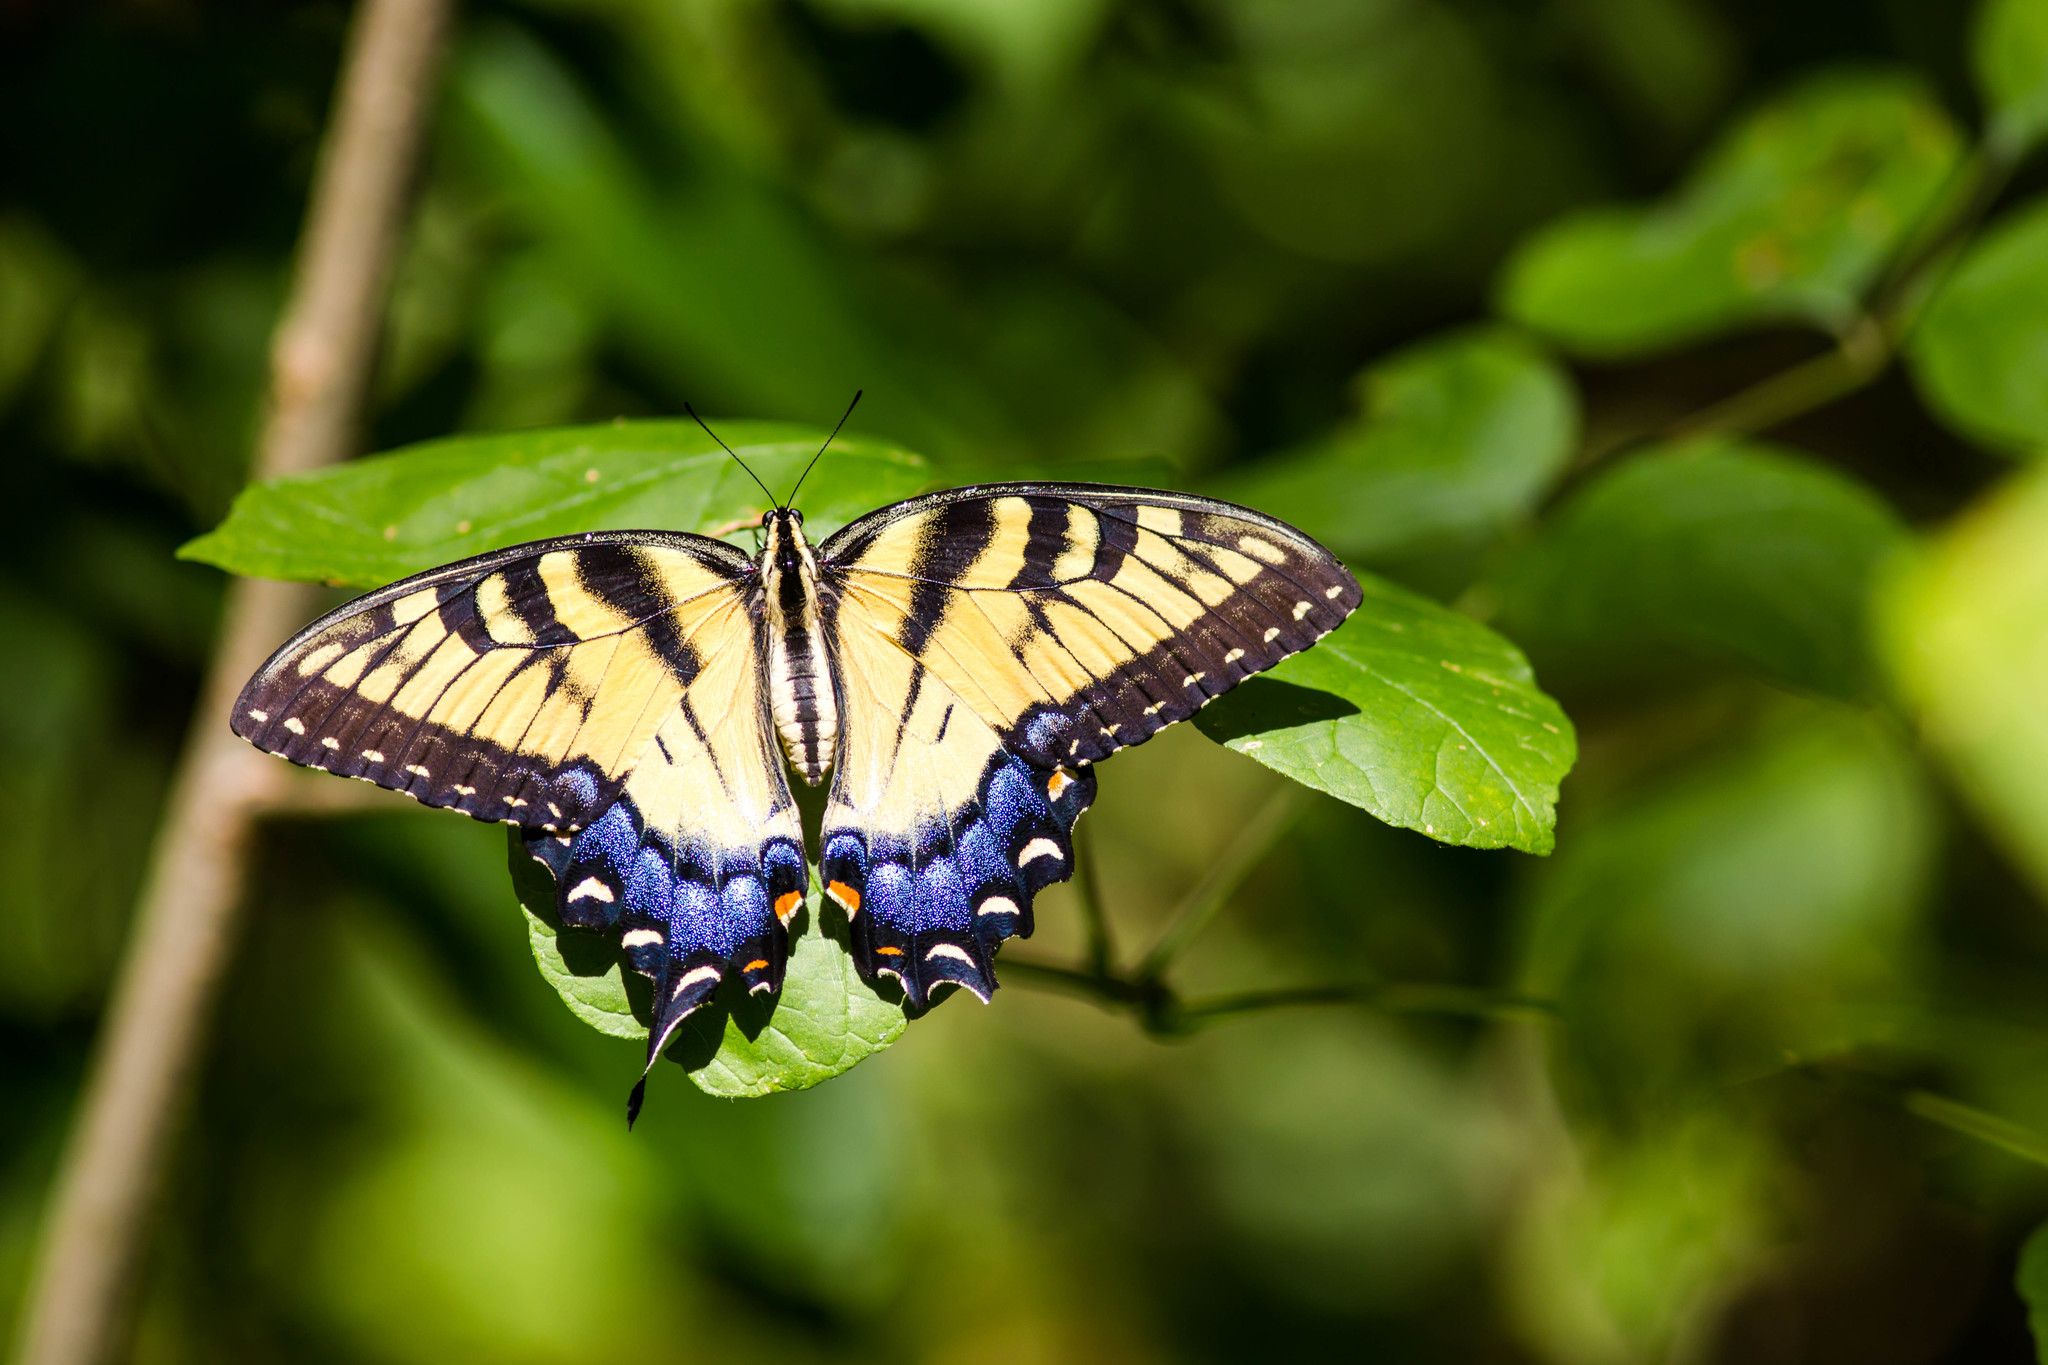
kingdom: Animalia
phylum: Arthropoda
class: Insecta
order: Lepidoptera
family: Papilionidae
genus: Papilio
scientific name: Papilio glaucus
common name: Tiger swallowtail
